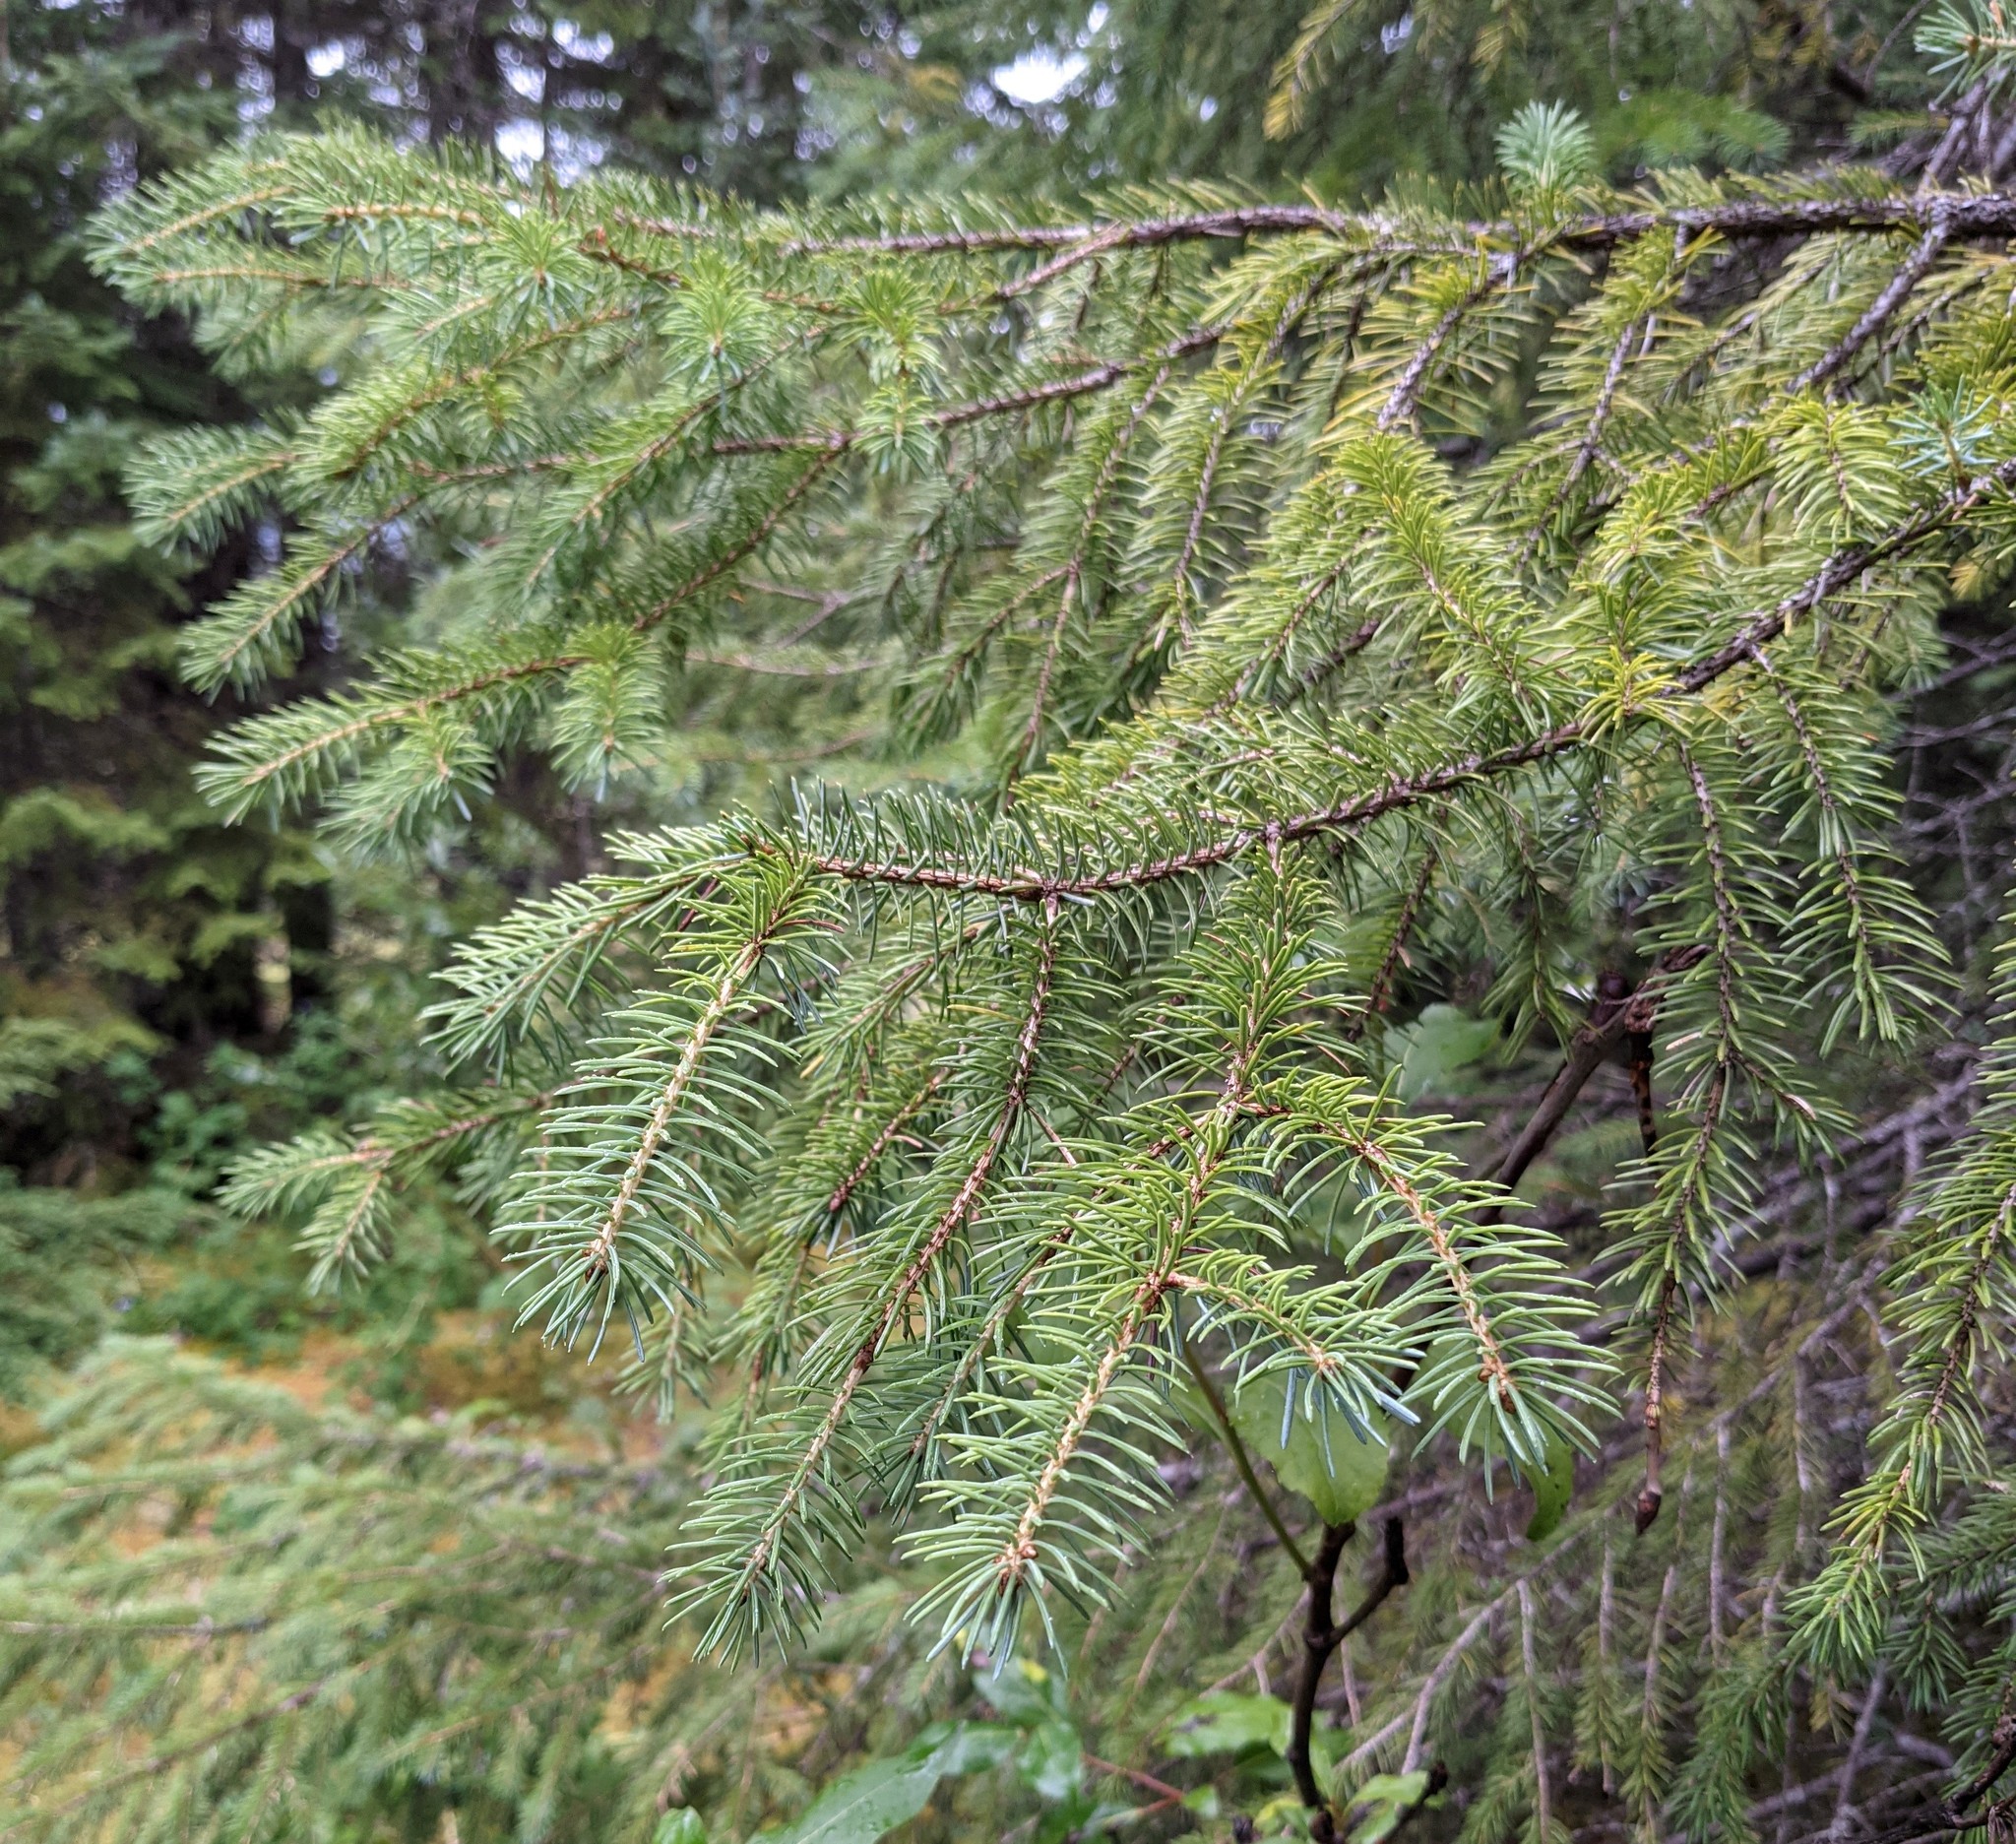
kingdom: Plantae
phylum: Tracheophyta
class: Pinopsida
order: Pinales
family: Pinaceae
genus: Picea
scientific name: Picea sitchensis
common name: Sitka spruce
